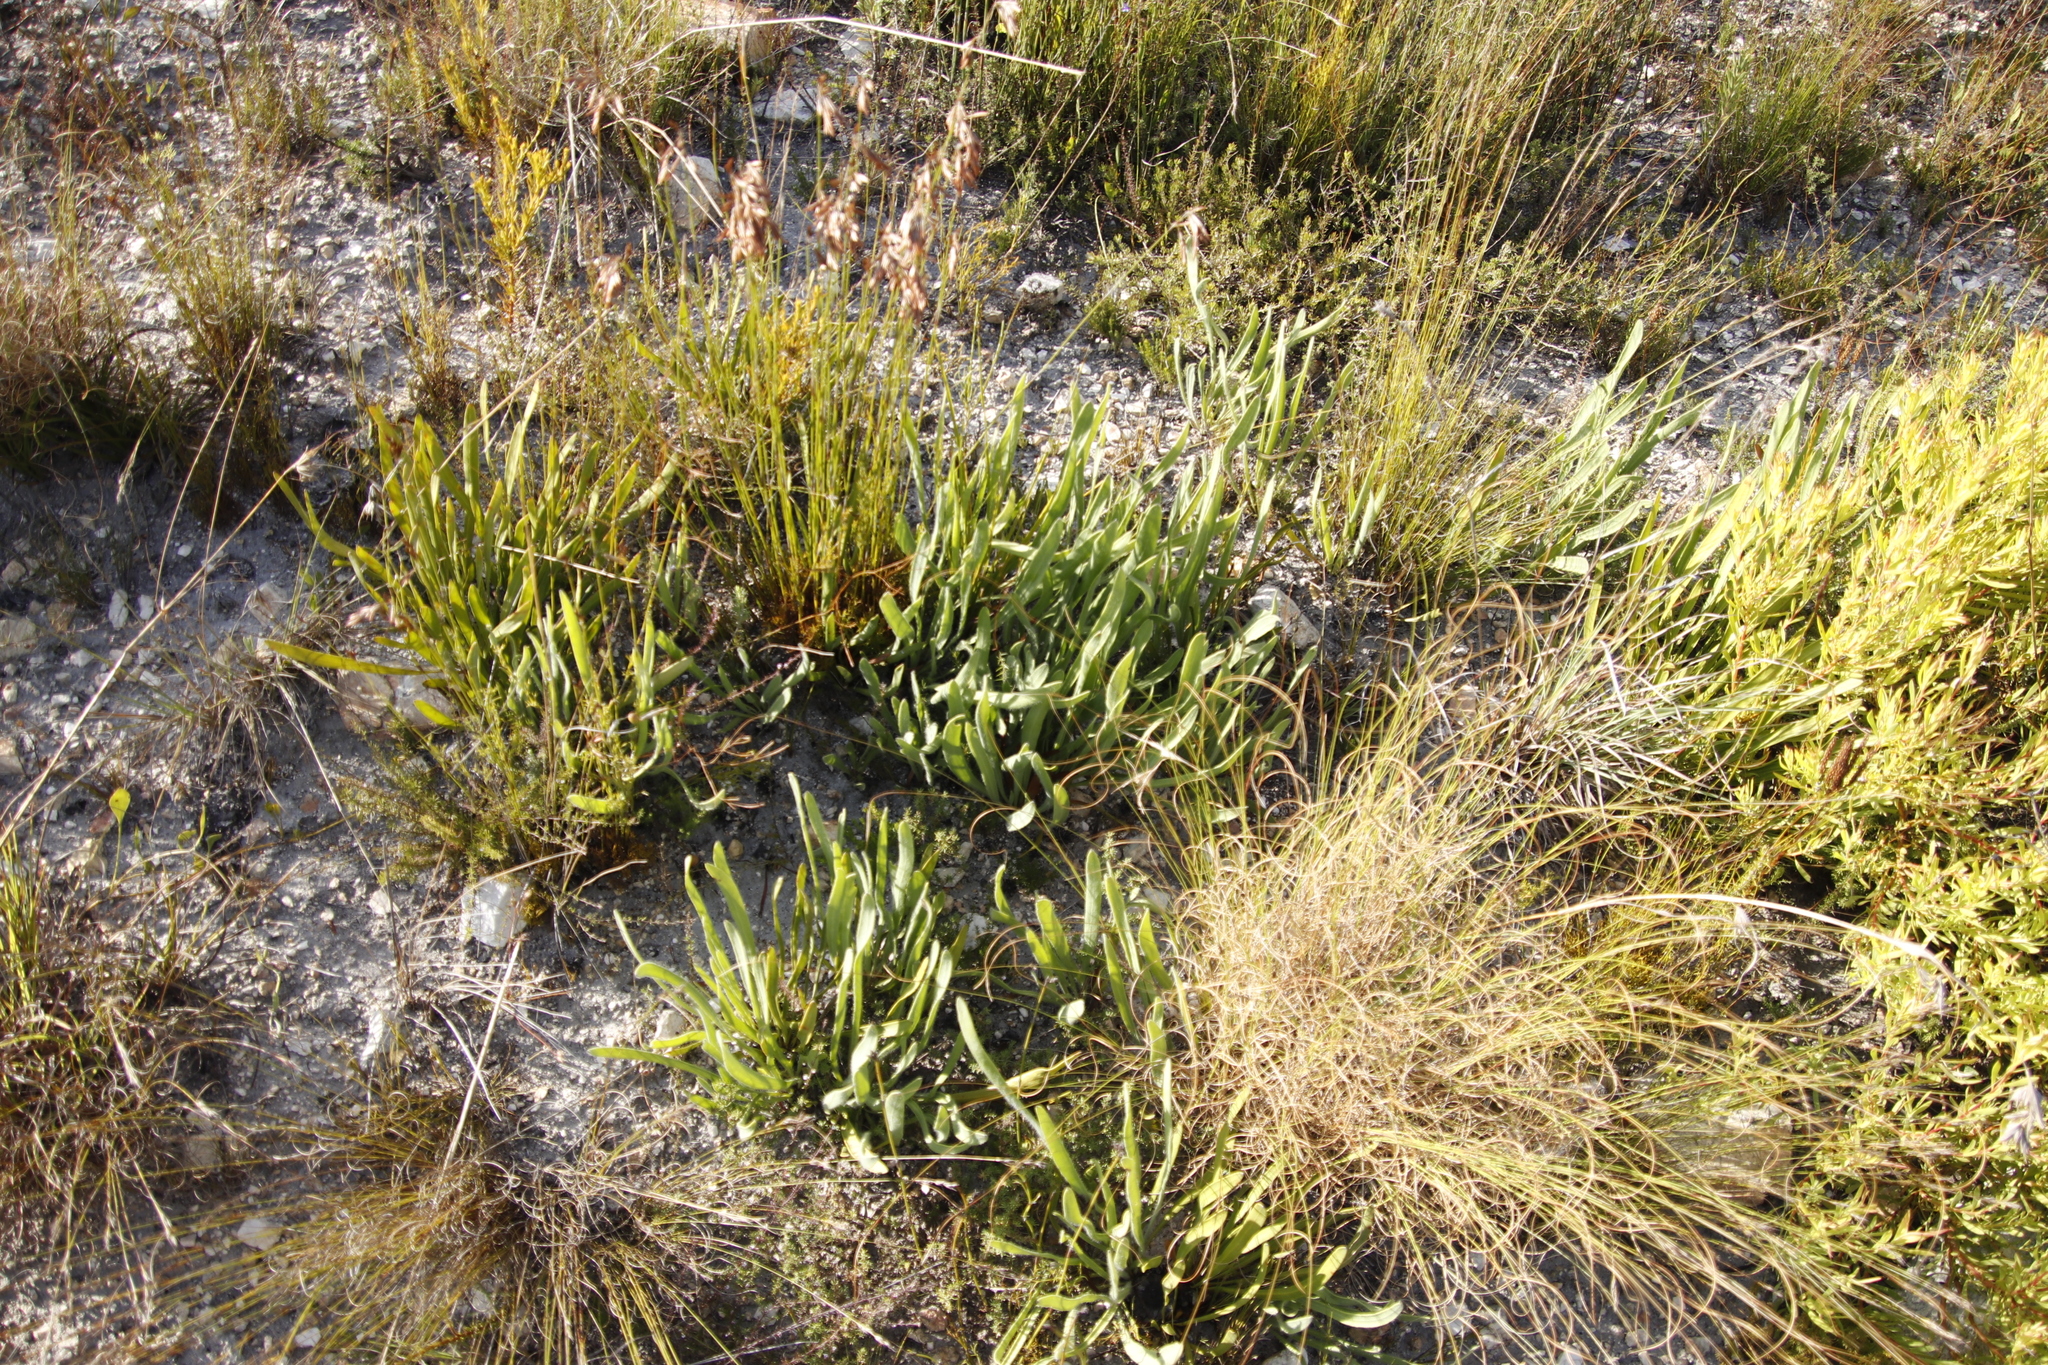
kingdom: Plantae
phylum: Tracheophyta
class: Magnoliopsida
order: Proteales
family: Proteaceae
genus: Protea
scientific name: Protea scabra
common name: Sandpaper-leaf sugarbush
